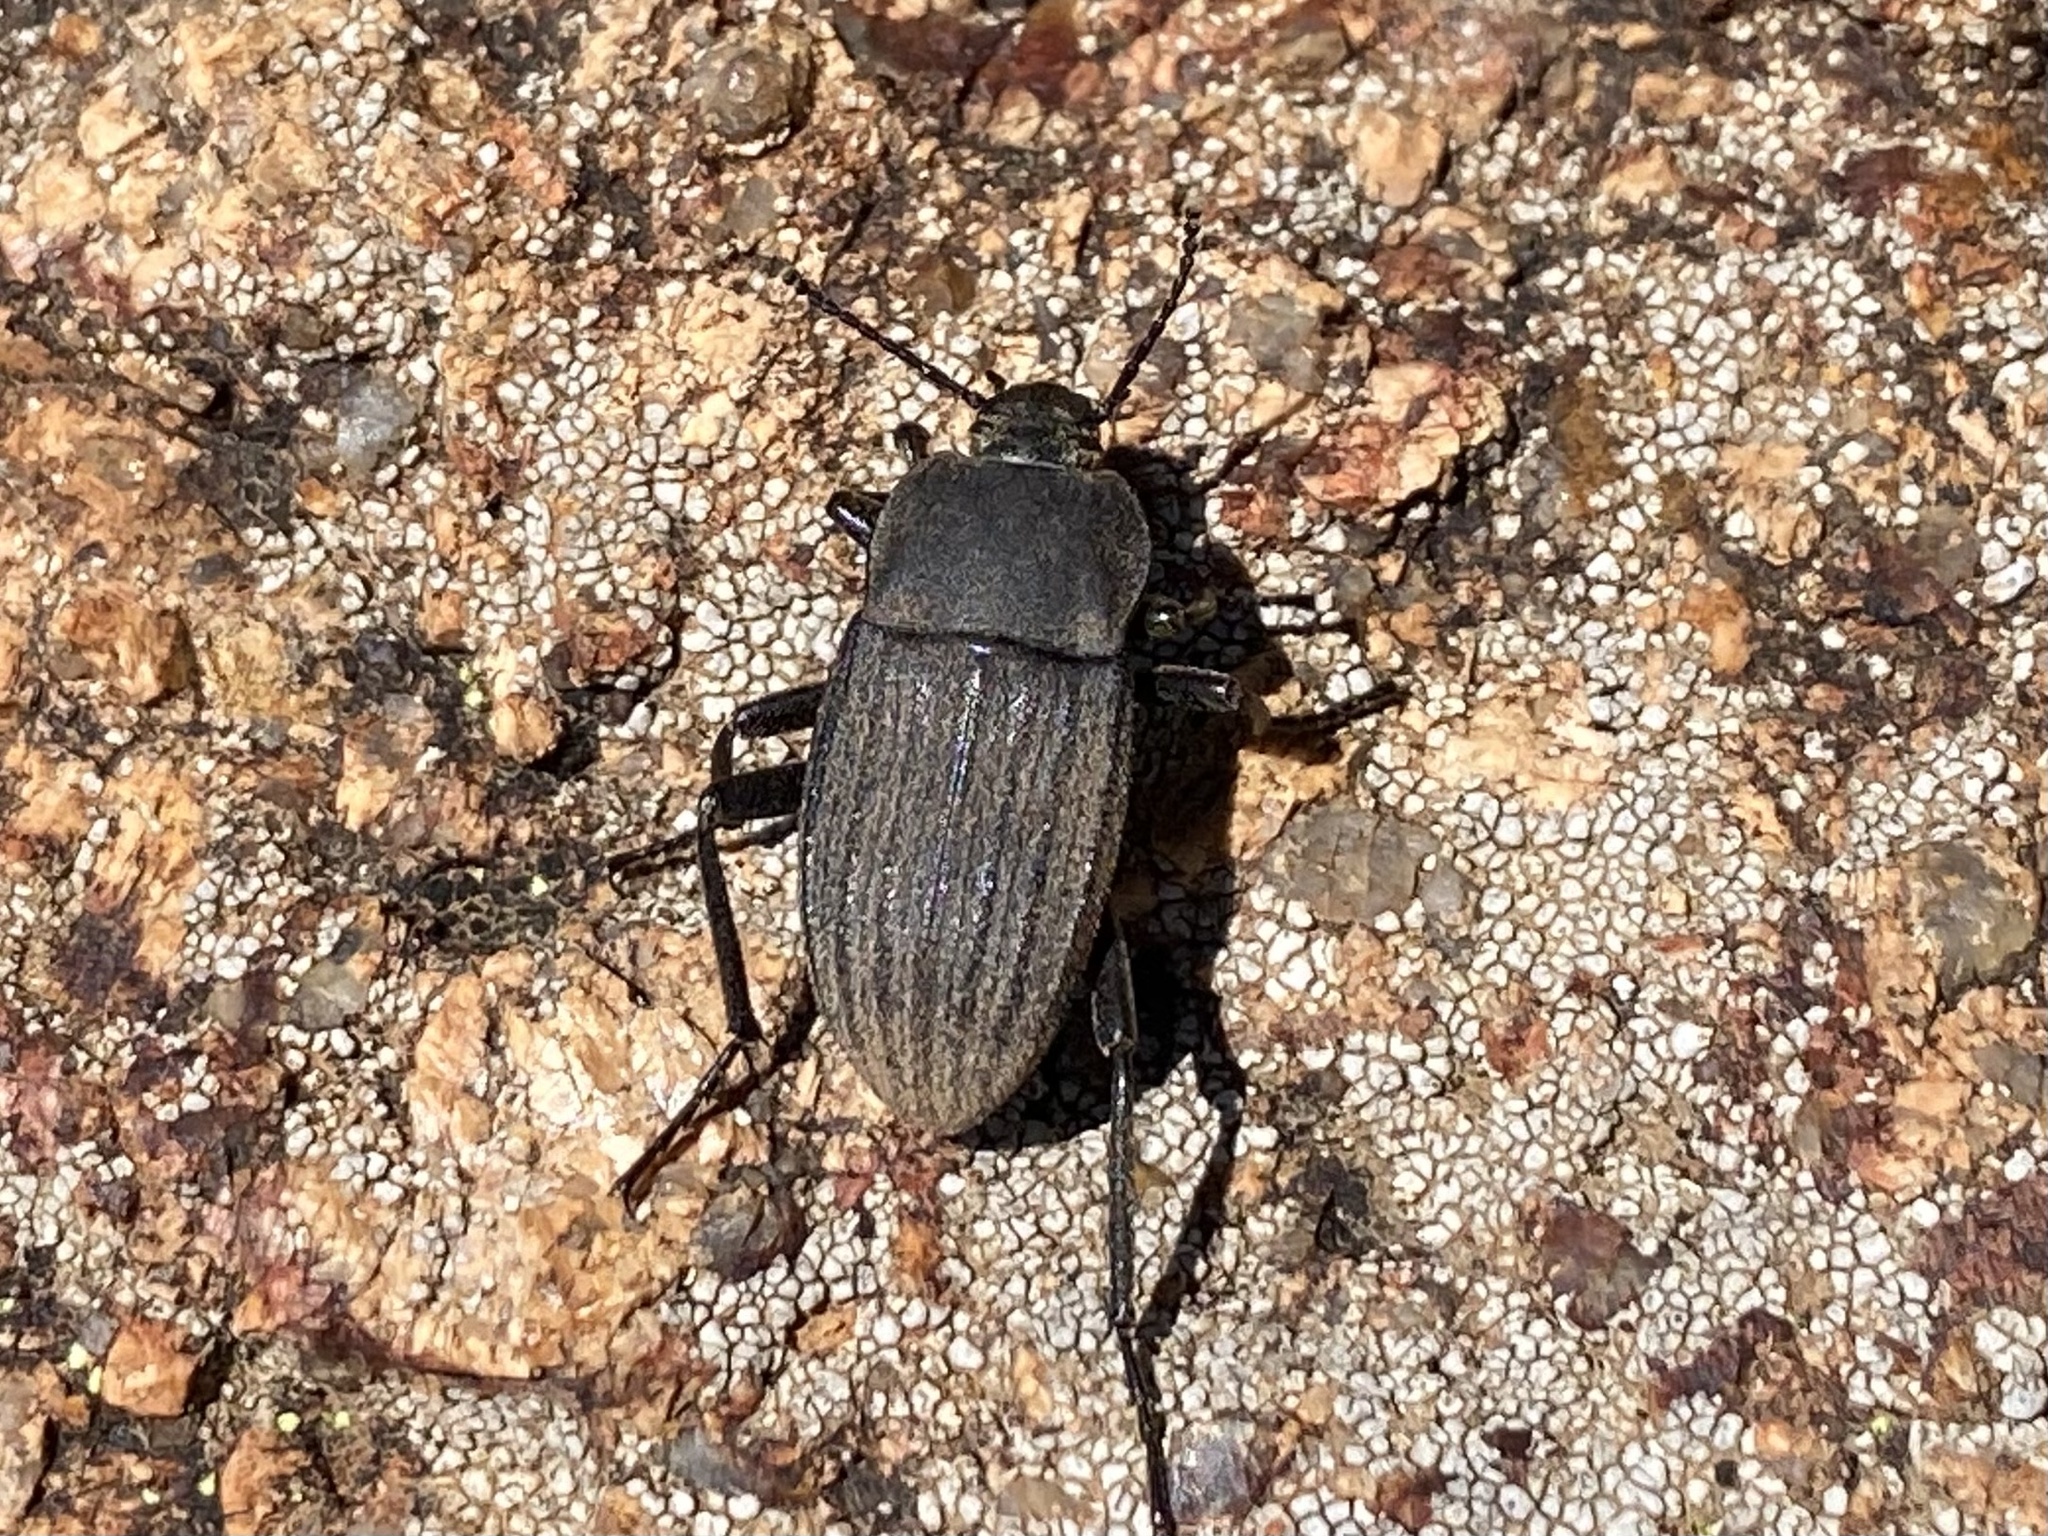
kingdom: Animalia
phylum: Arthropoda
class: Insecta
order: Coleoptera
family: Tenebrionidae
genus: Eleodes
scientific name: Eleodes tricostata
